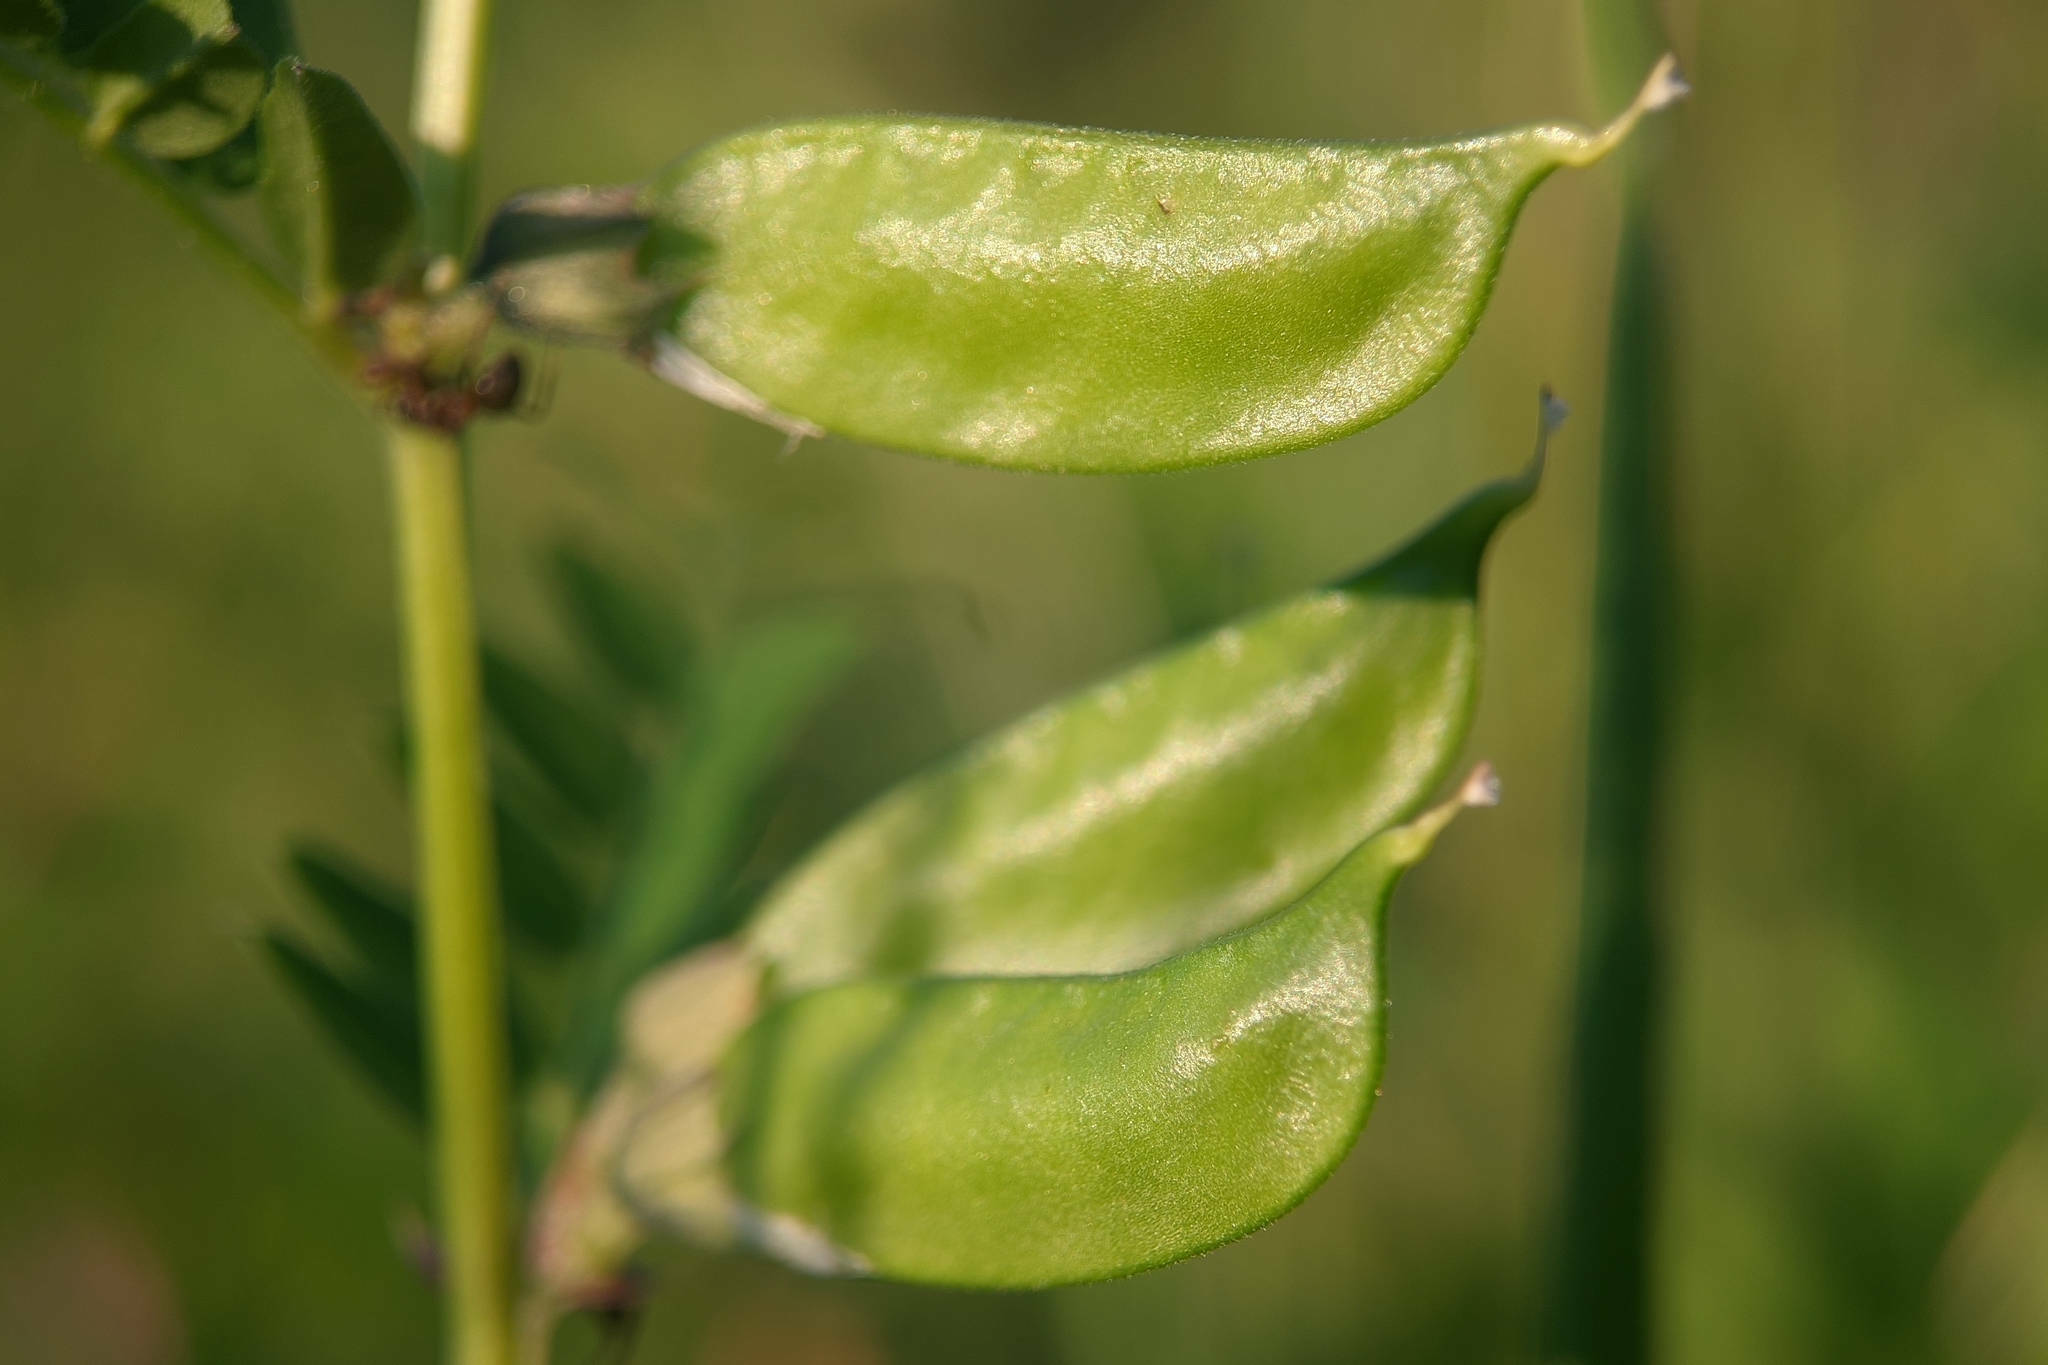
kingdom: Plantae
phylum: Tracheophyta
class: Magnoliopsida
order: Fabales
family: Fabaceae
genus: Vicia
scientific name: Vicia sepium
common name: Bush vetch
